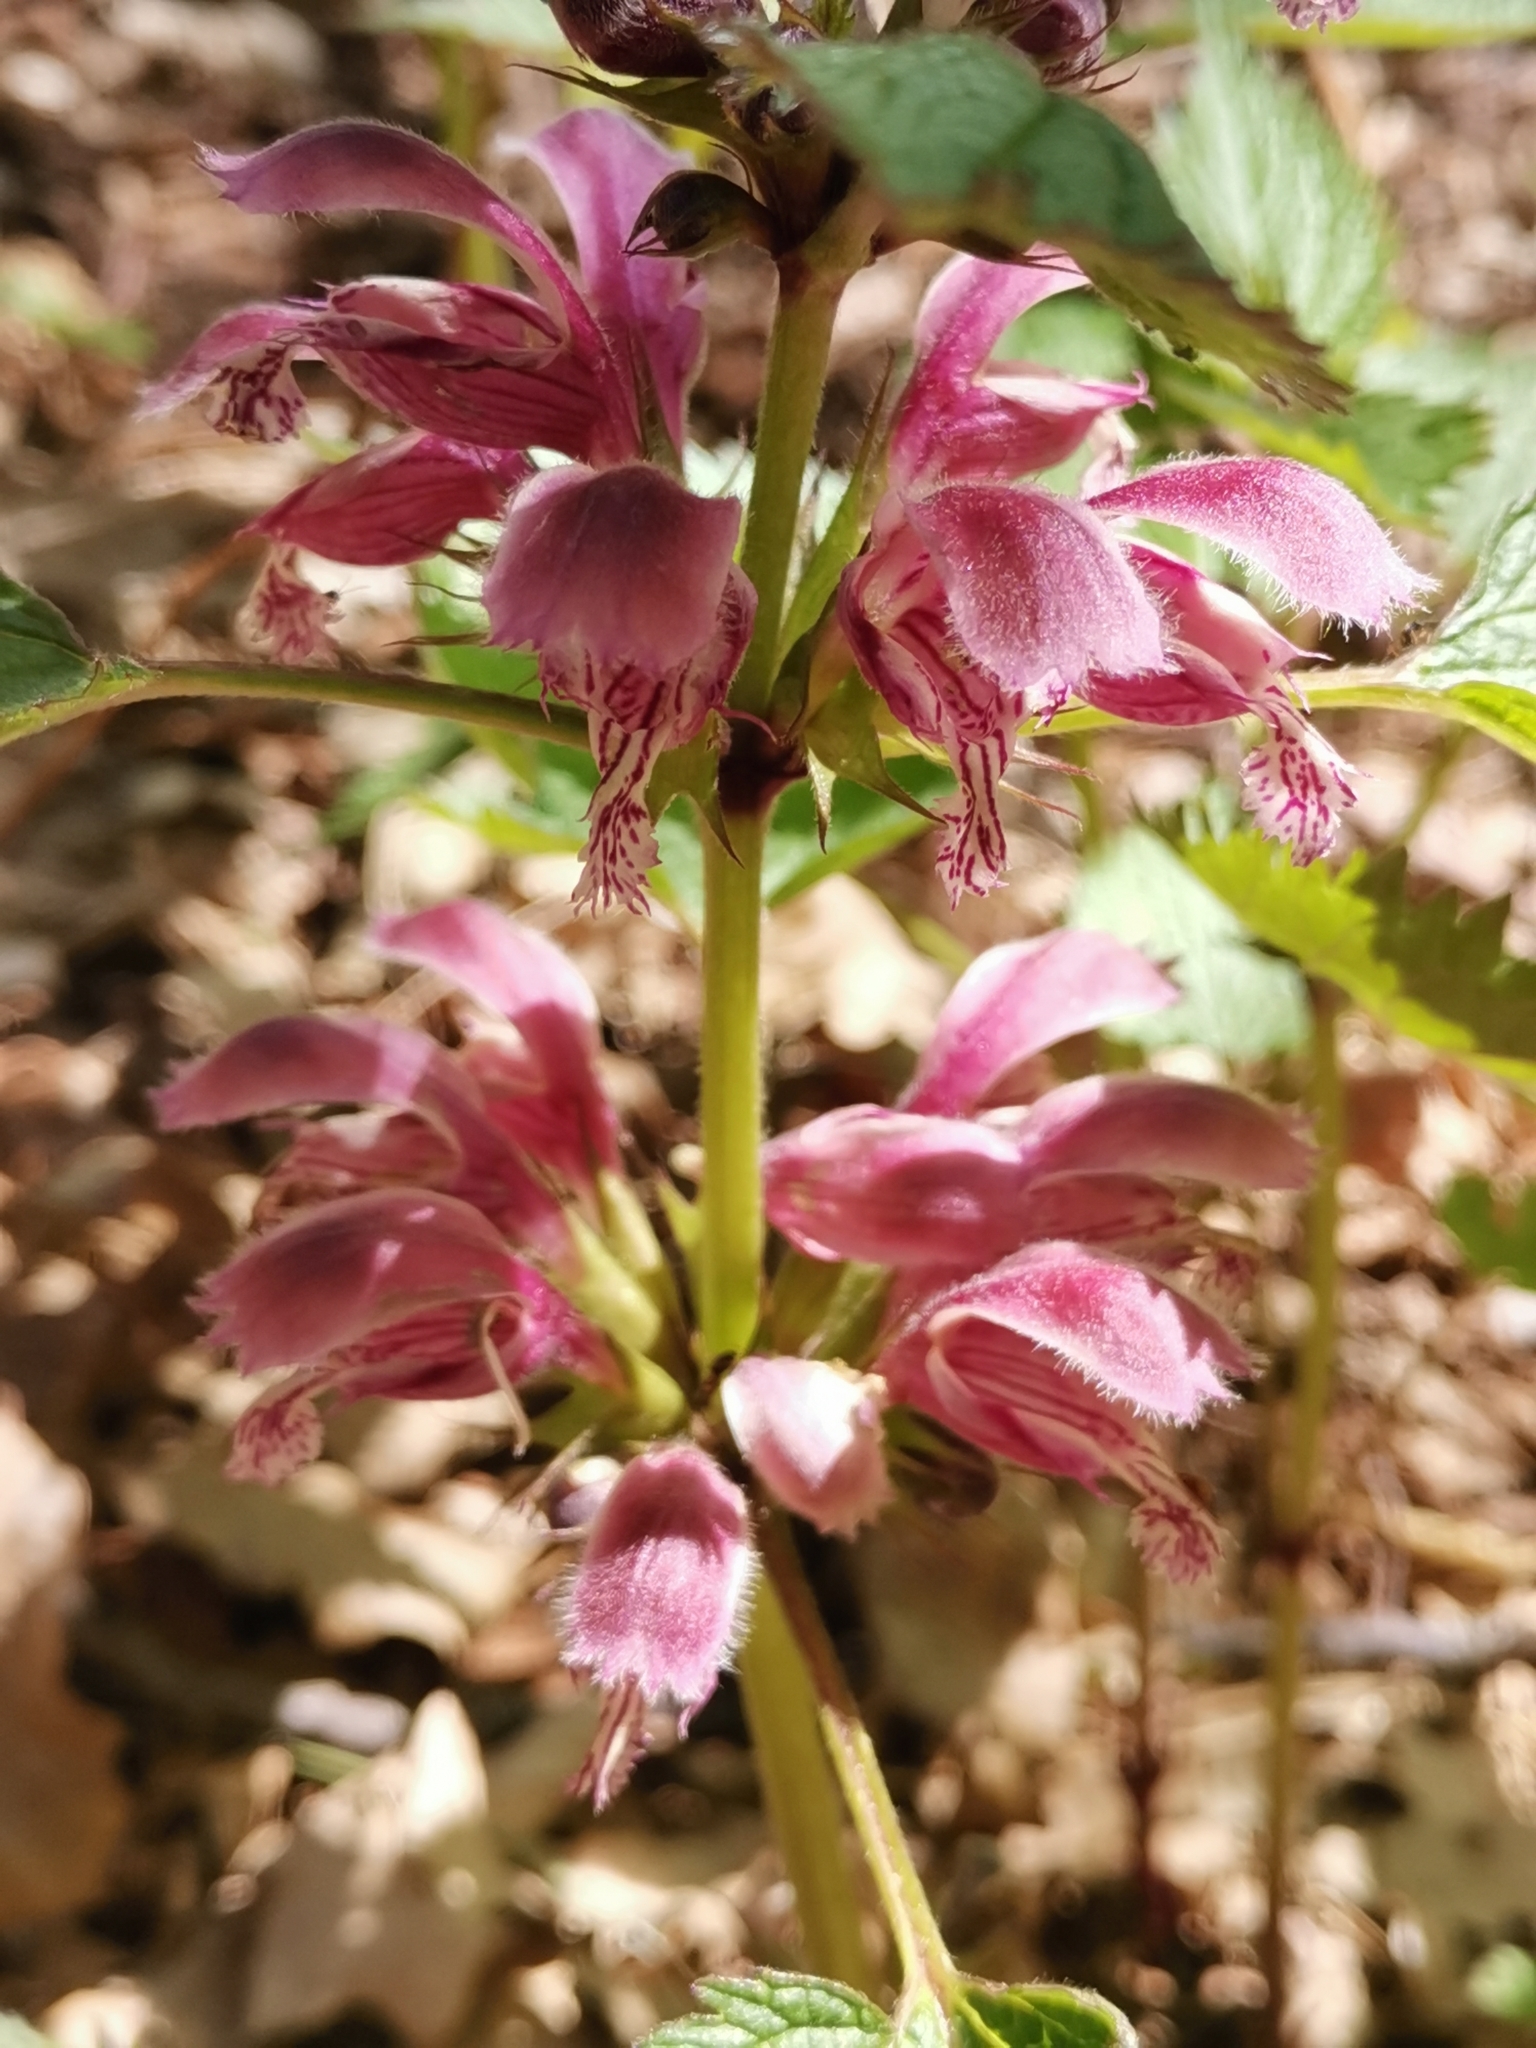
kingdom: Plantae
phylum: Tracheophyta
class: Magnoliopsida
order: Lamiales
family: Lamiaceae
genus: Lamium
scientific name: Lamium orvala
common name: Balm-leaved archangel
